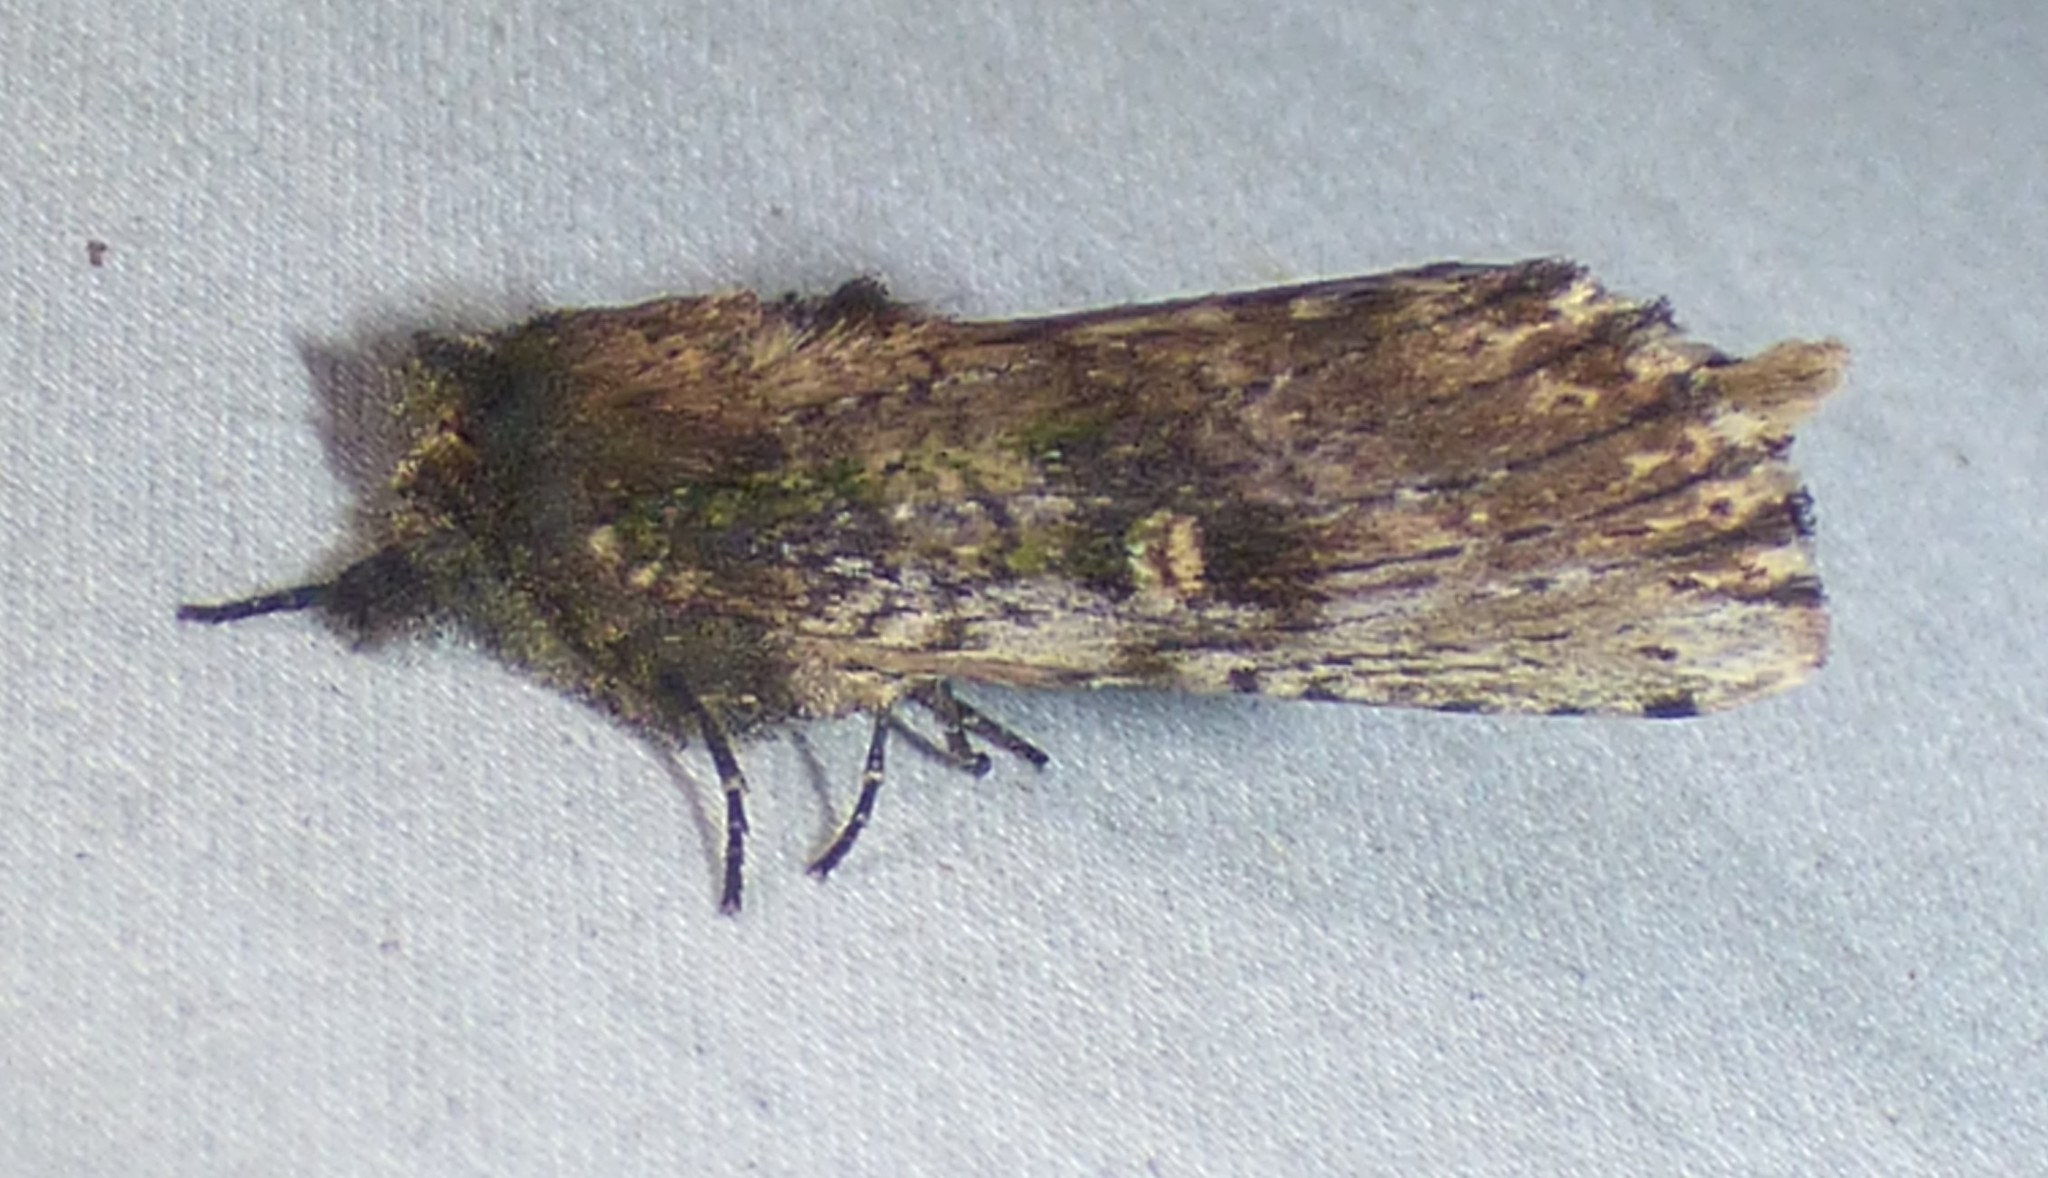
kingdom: Animalia
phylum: Arthropoda
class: Insecta
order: Lepidoptera
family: Notodontidae
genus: Schizura
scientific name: Schizura ipomaeae
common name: Morning-glory prominent
